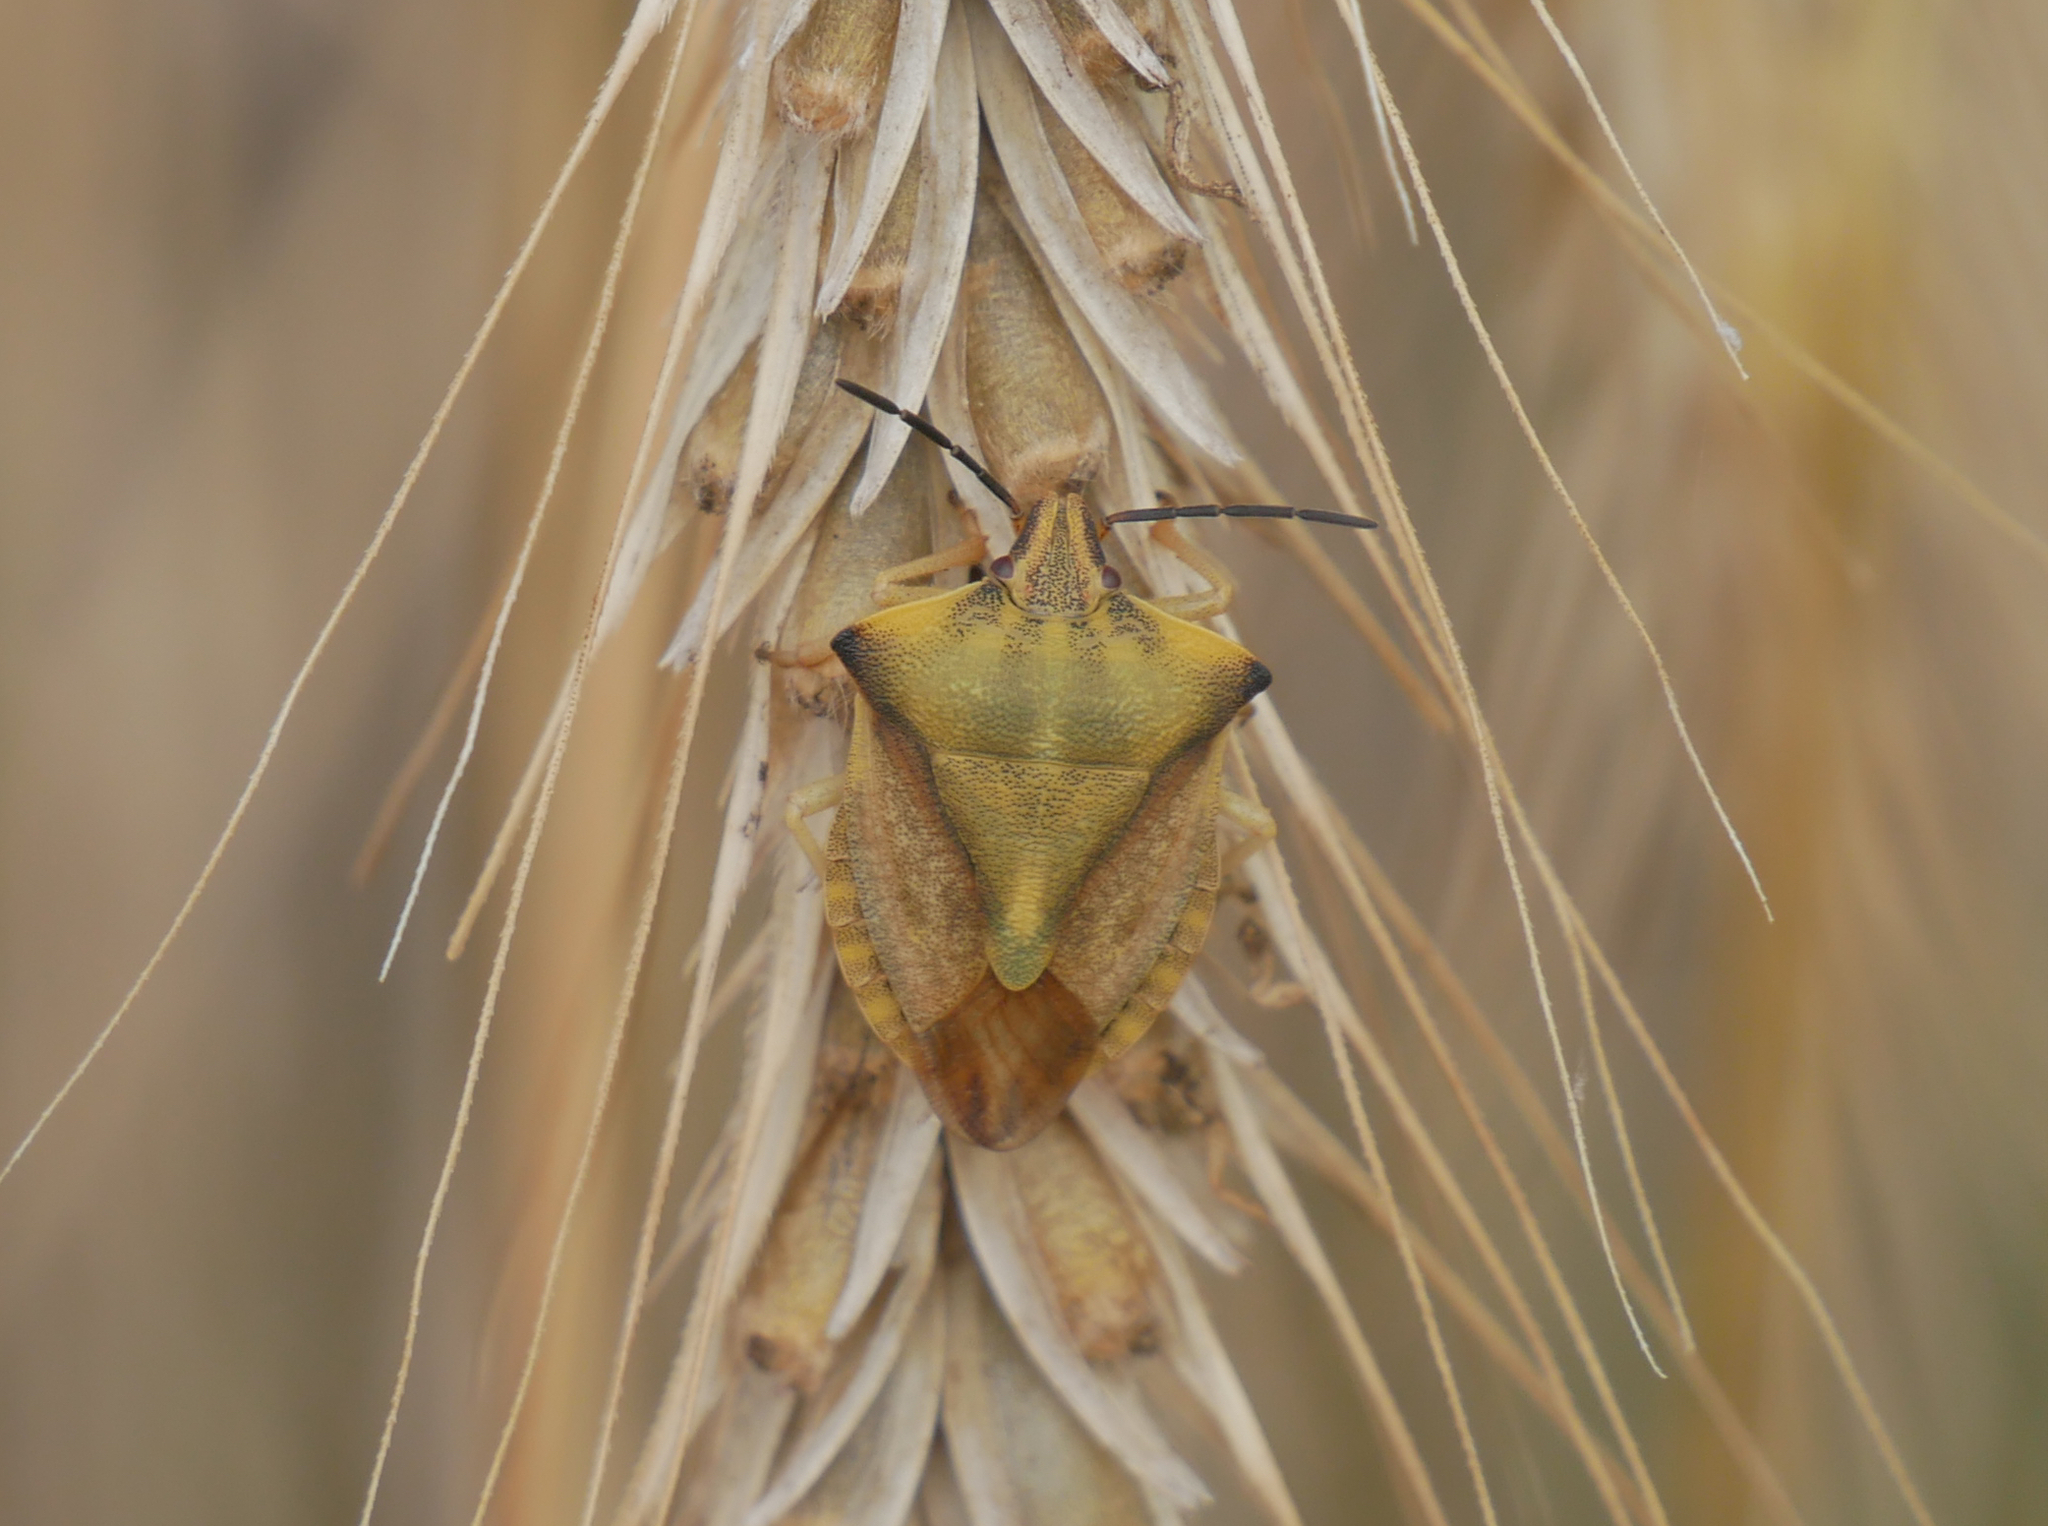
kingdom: Animalia
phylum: Arthropoda
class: Insecta
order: Hemiptera
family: Pentatomidae
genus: Carpocoris
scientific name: Carpocoris fuscispinus
